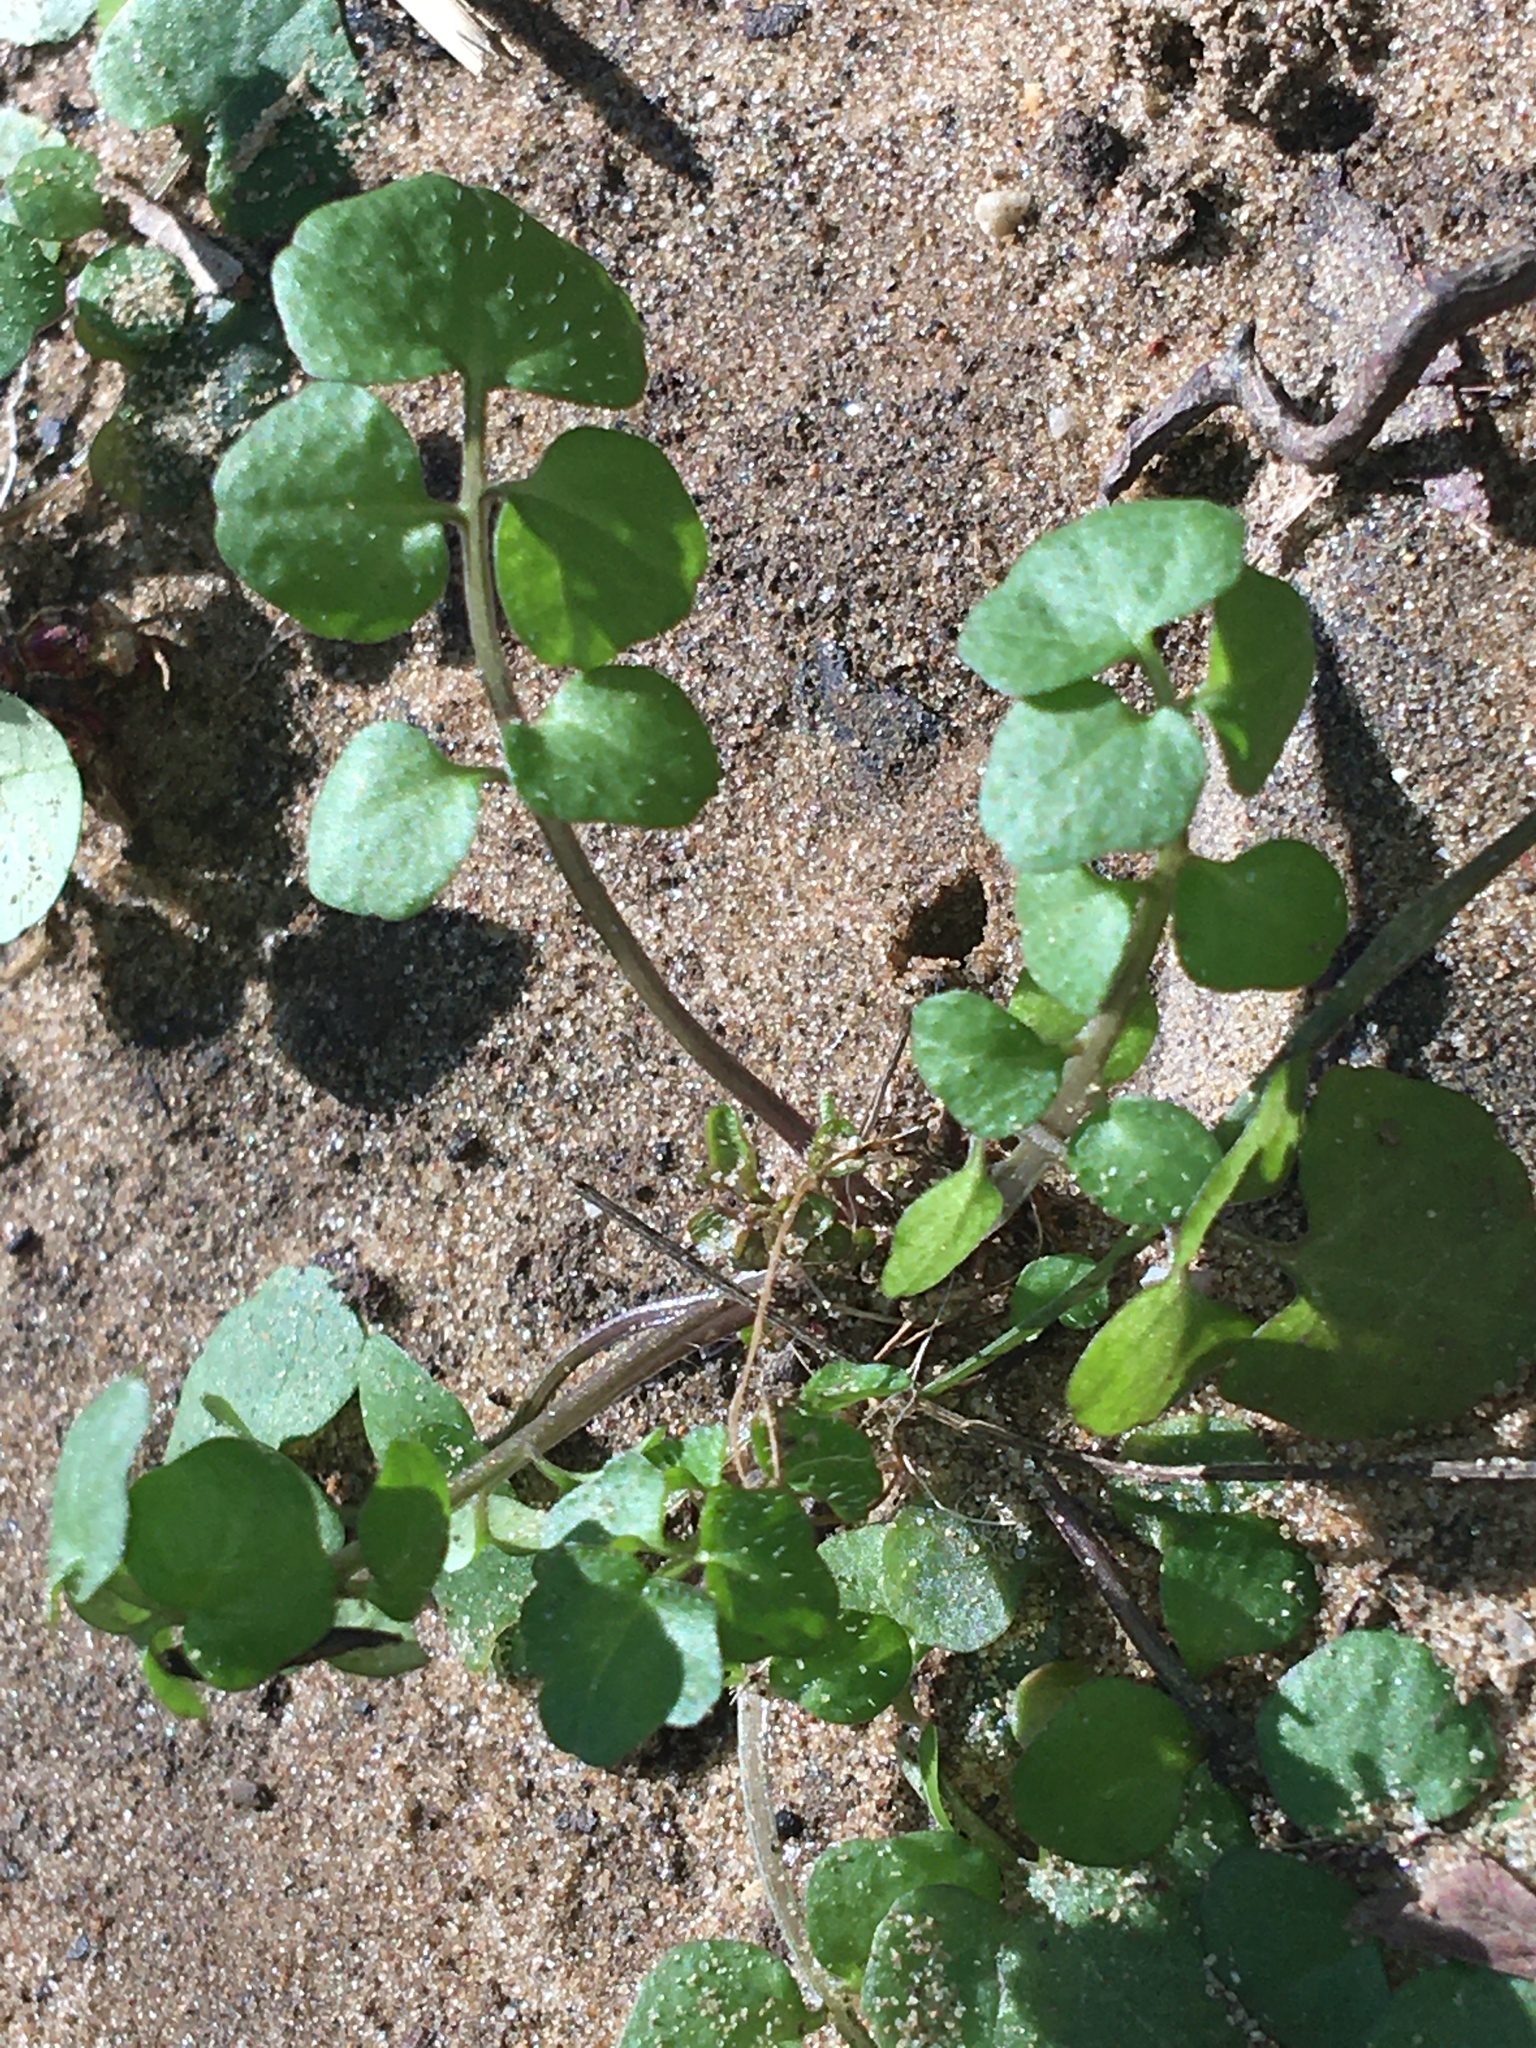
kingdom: Plantae
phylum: Tracheophyta
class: Magnoliopsida
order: Brassicales
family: Brassicaceae
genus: Cardamine
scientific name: Cardamine hirsuta
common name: Hairy bittercress
